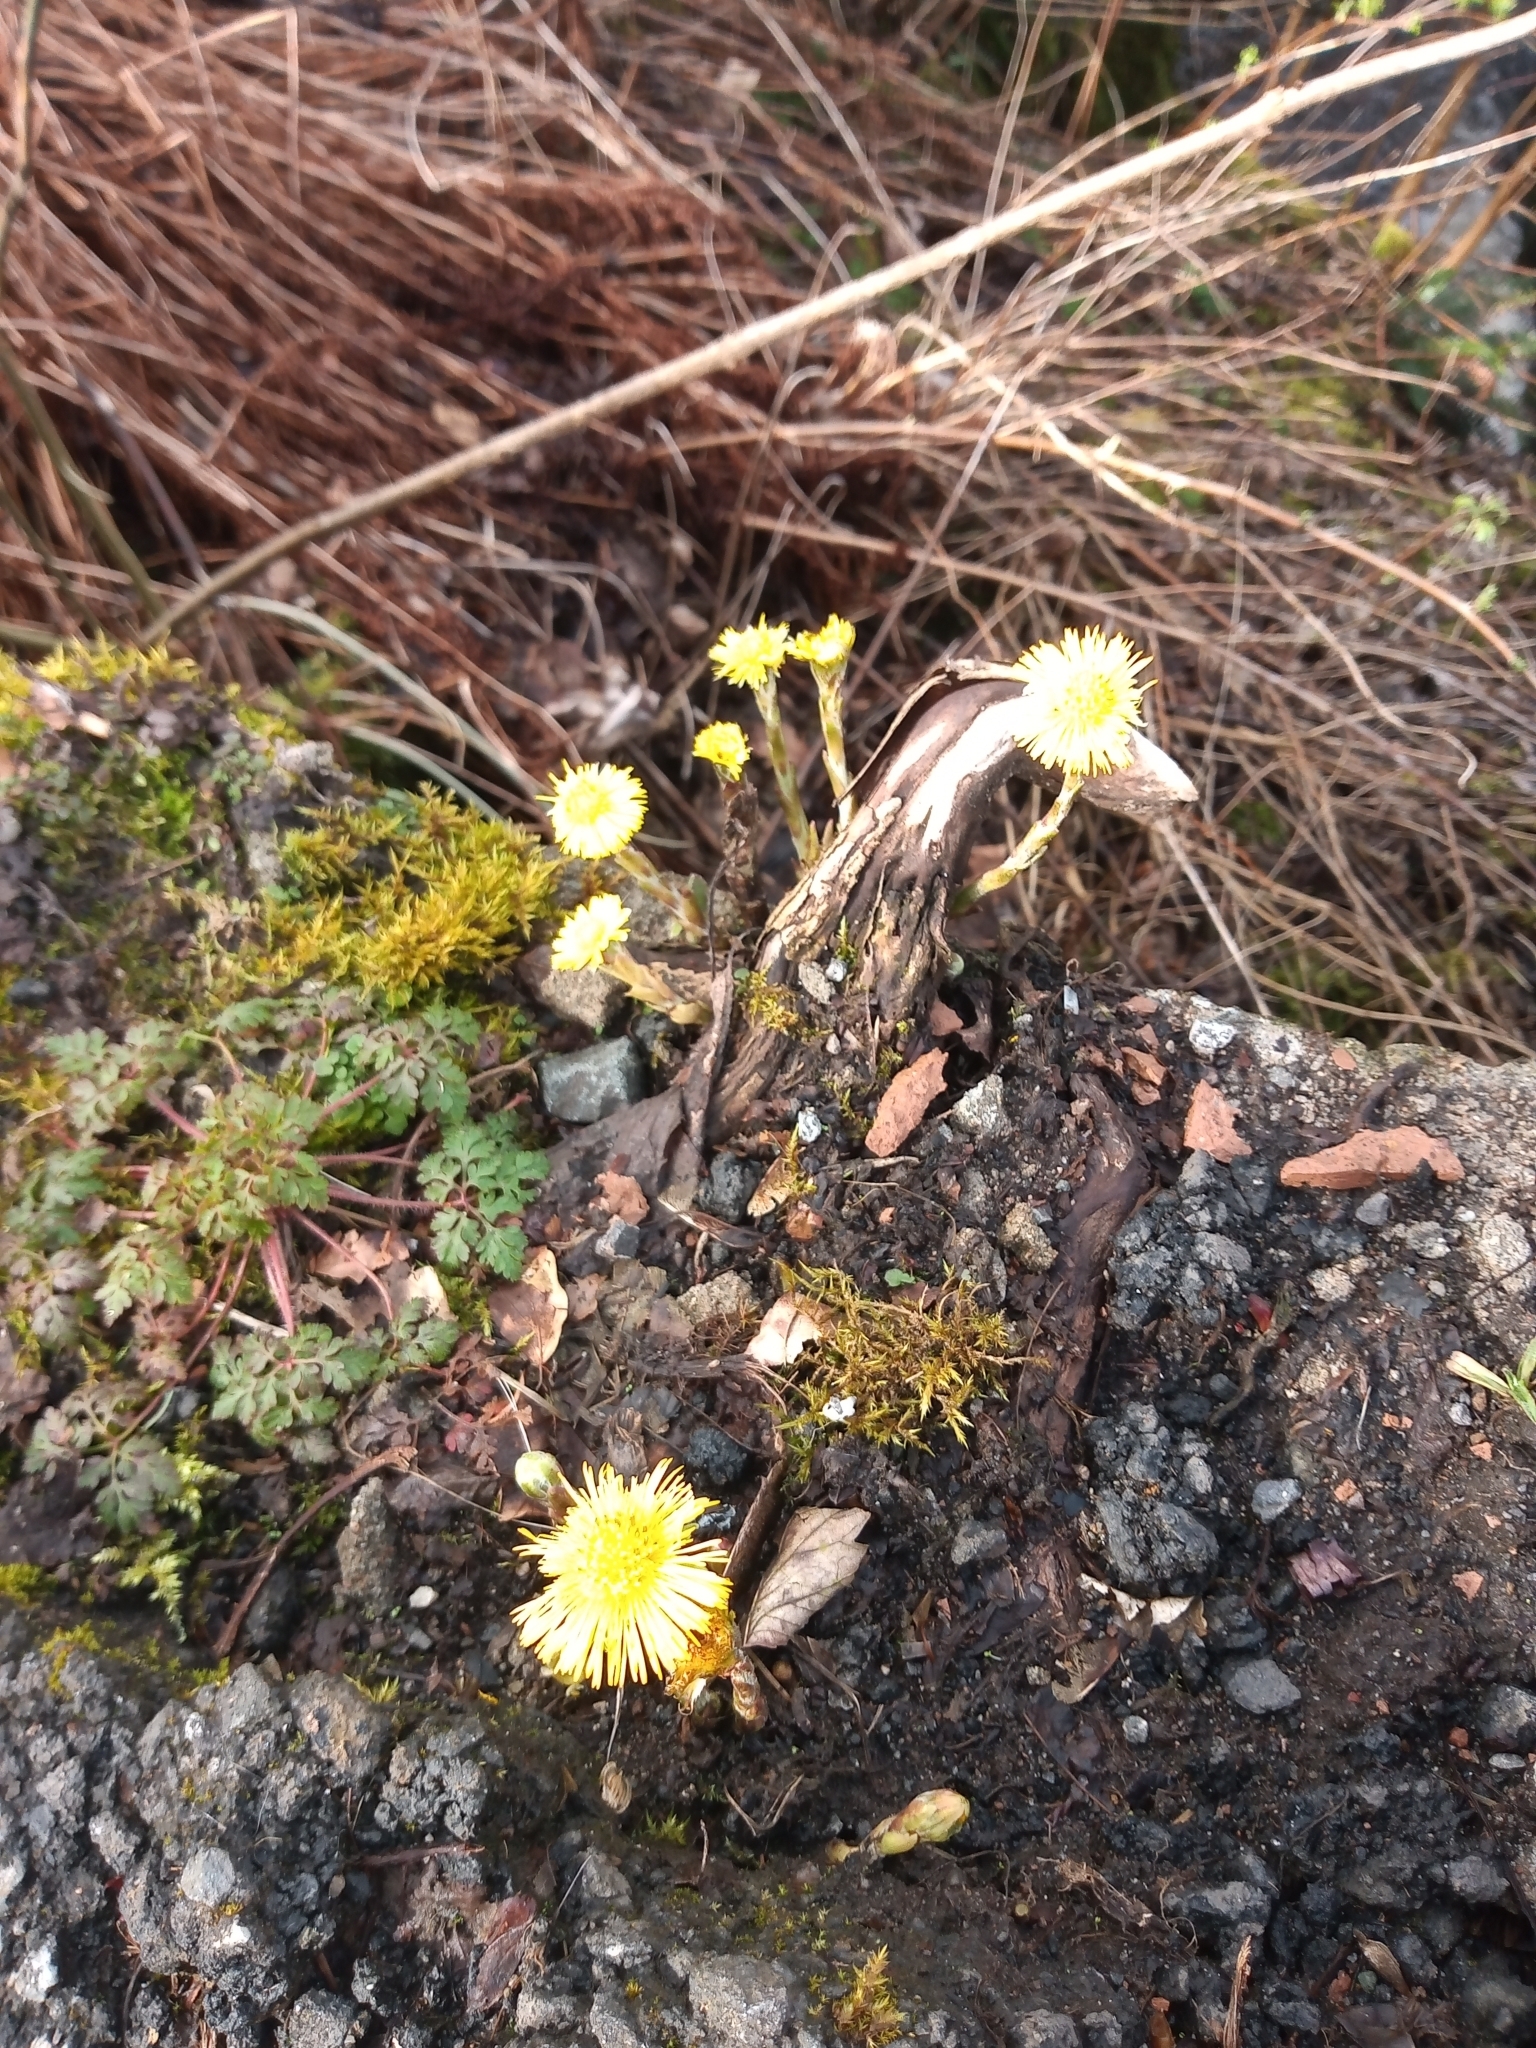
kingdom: Plantae
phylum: Tracheophyta
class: Magnoliopsida
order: Asterales
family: Asteraceae
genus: Tussilago
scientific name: Tussilago farfara
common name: Coltsfoot
